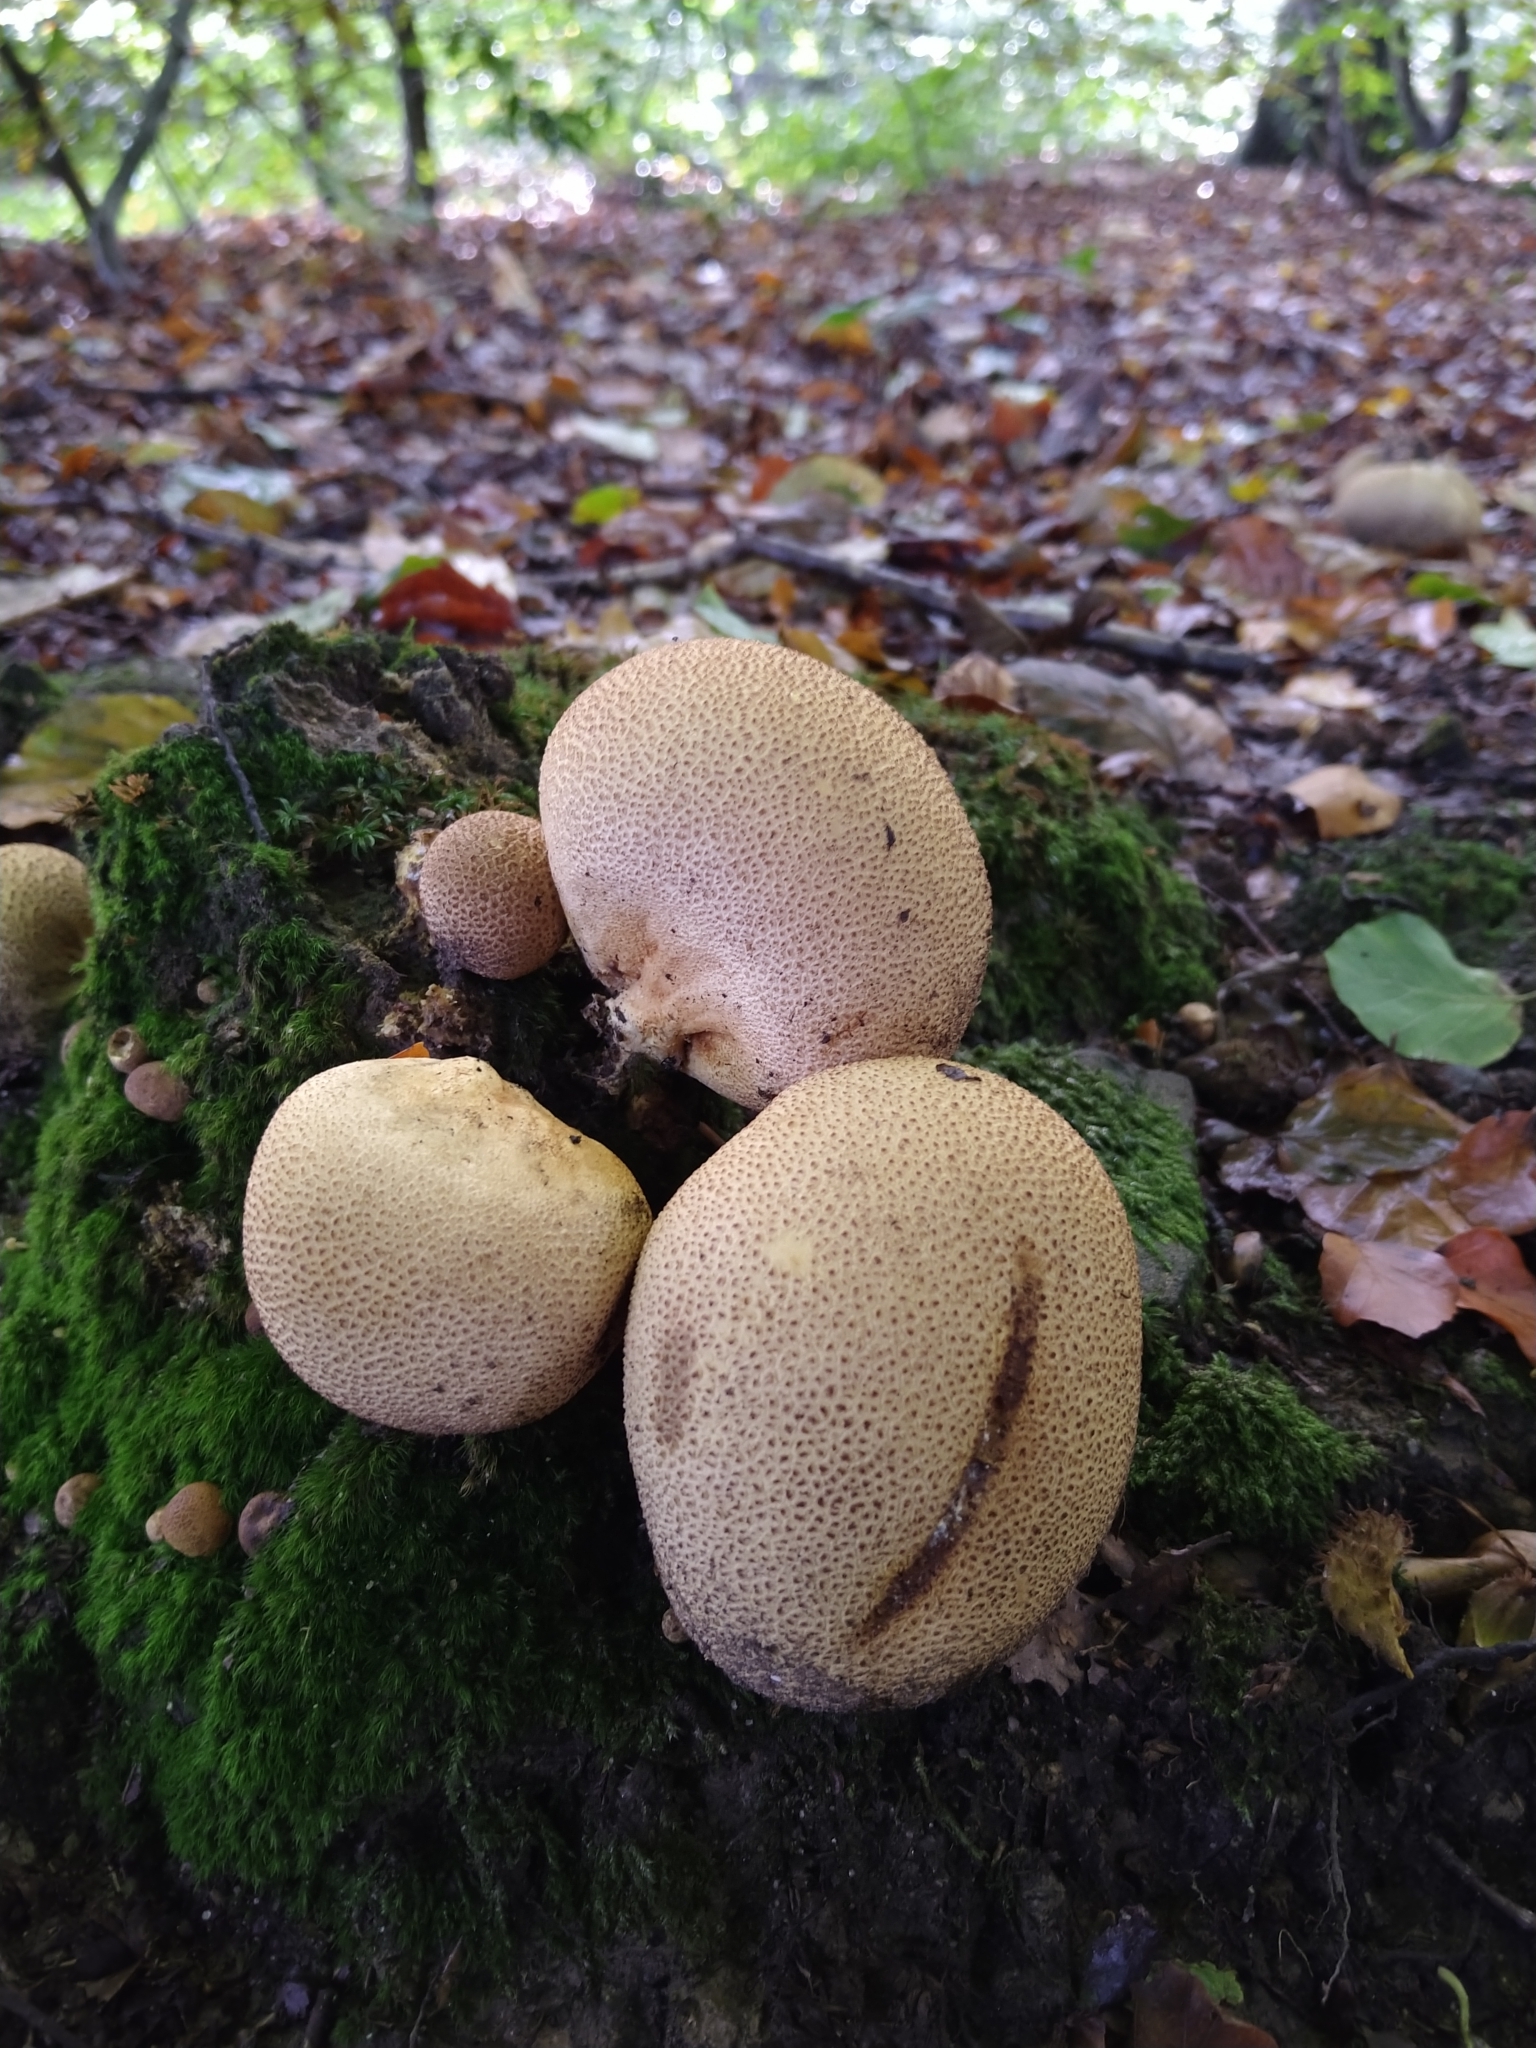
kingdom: Fungi
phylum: Basidiomycota
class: Agaricomycetes
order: Boletales
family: Sclerodermataceae
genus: Scleroderma
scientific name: Scleroderma citrinum
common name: Common earthball
